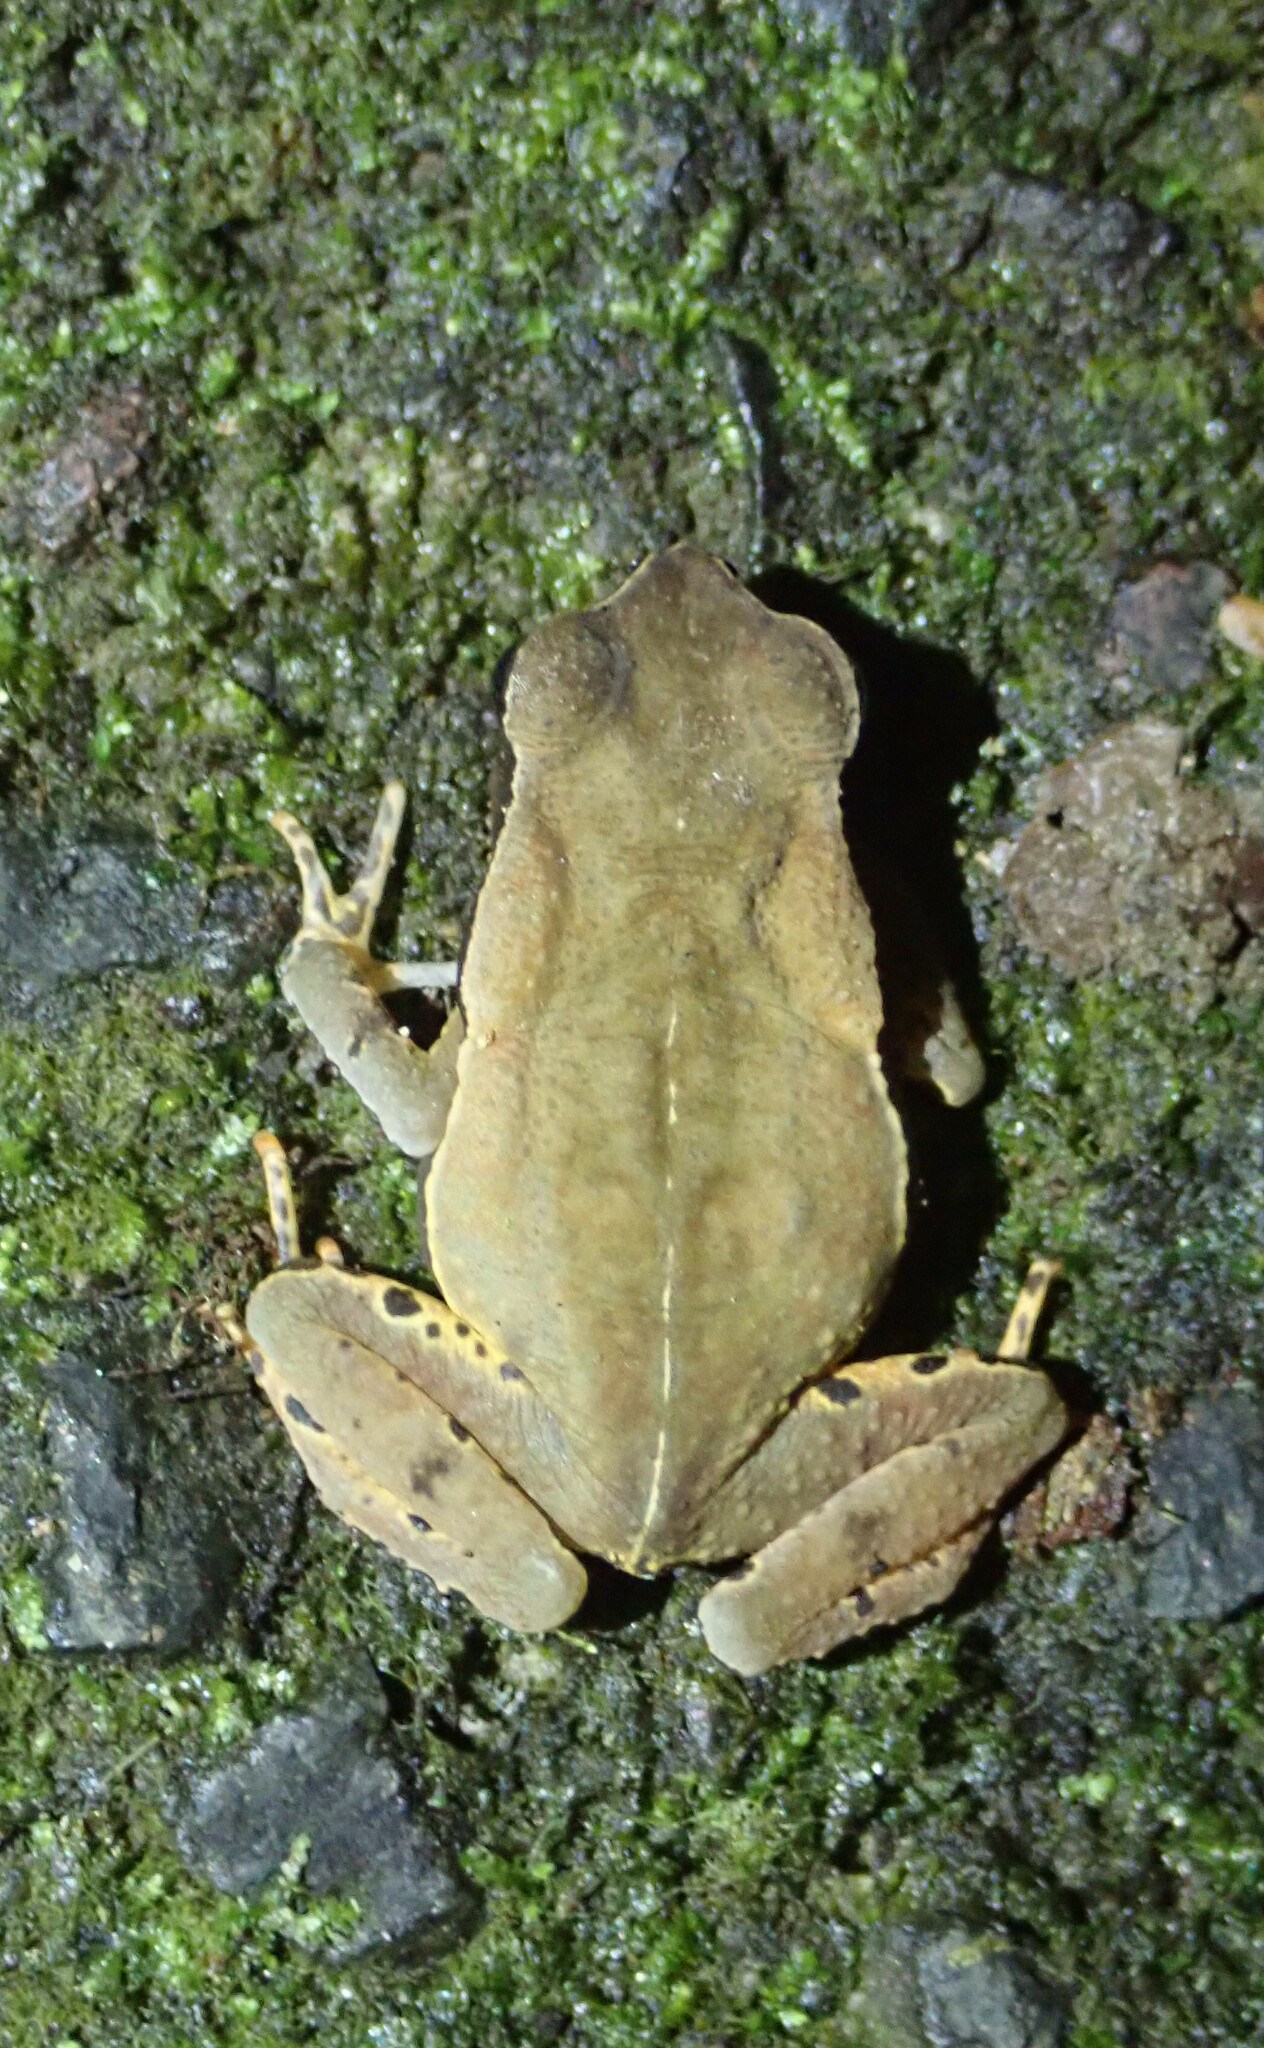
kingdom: Animalia
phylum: Chordata
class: Amphibia
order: Anura
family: Bufonidae
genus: Rhaebo
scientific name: Rhaebo haematiticus
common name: Truando toad
